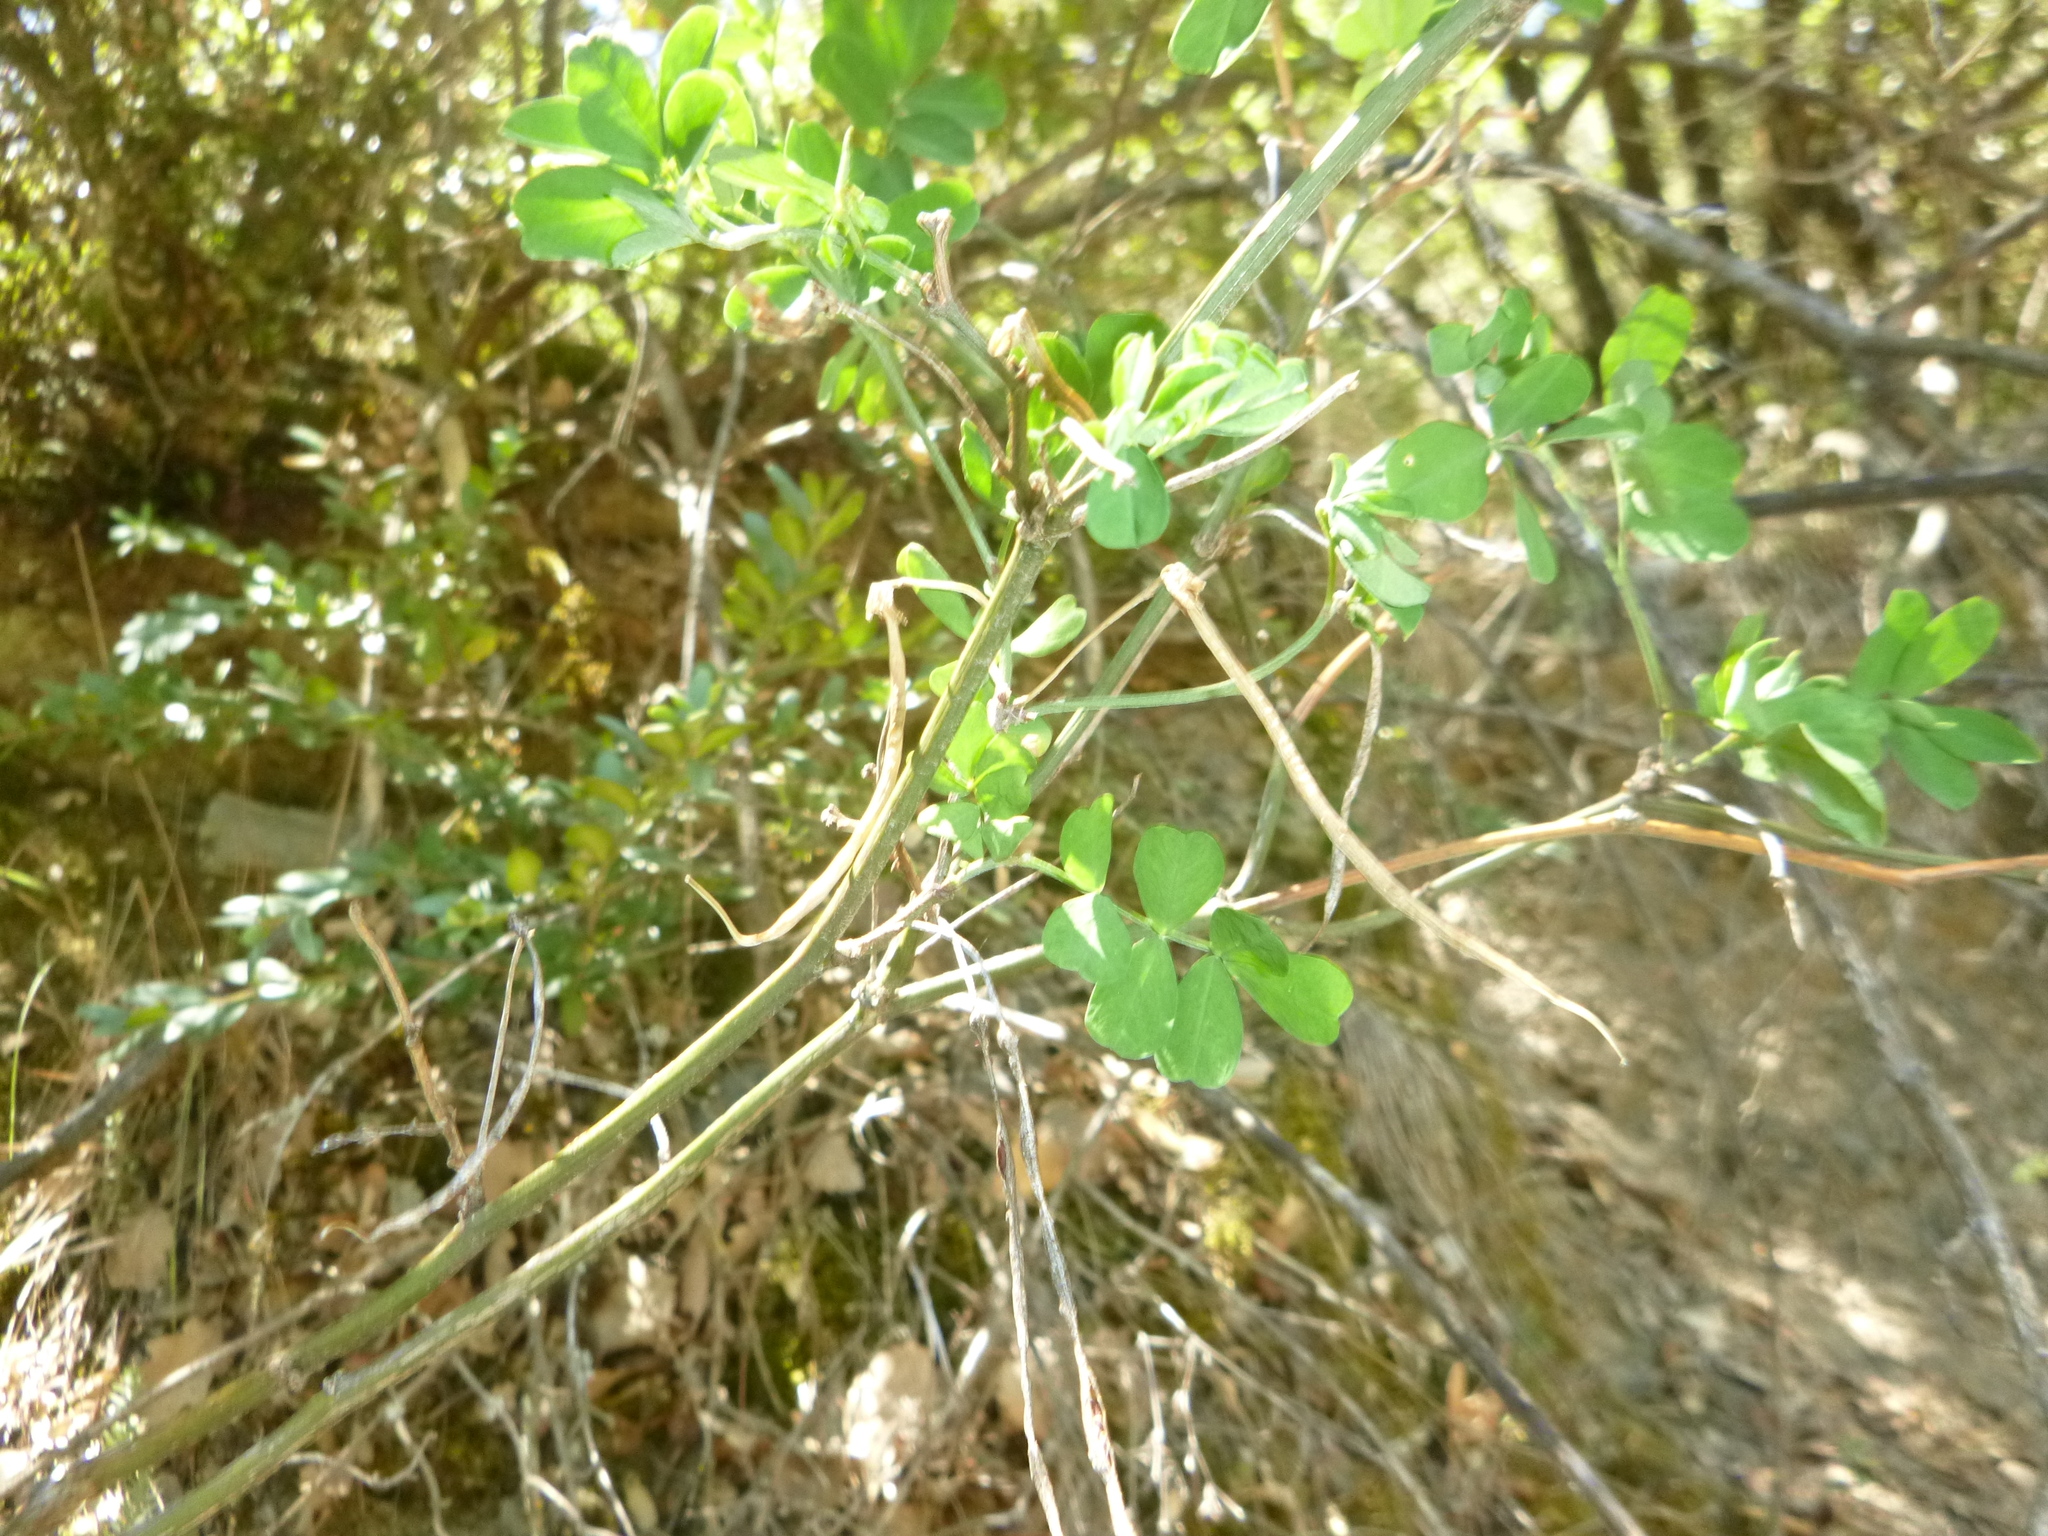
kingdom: Plantae
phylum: Tracheophyta
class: Magnoliopsida
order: Fabales
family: Fabaceae
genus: Hippocrepis
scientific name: Hippocrepis emerus
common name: Scorpion senna
